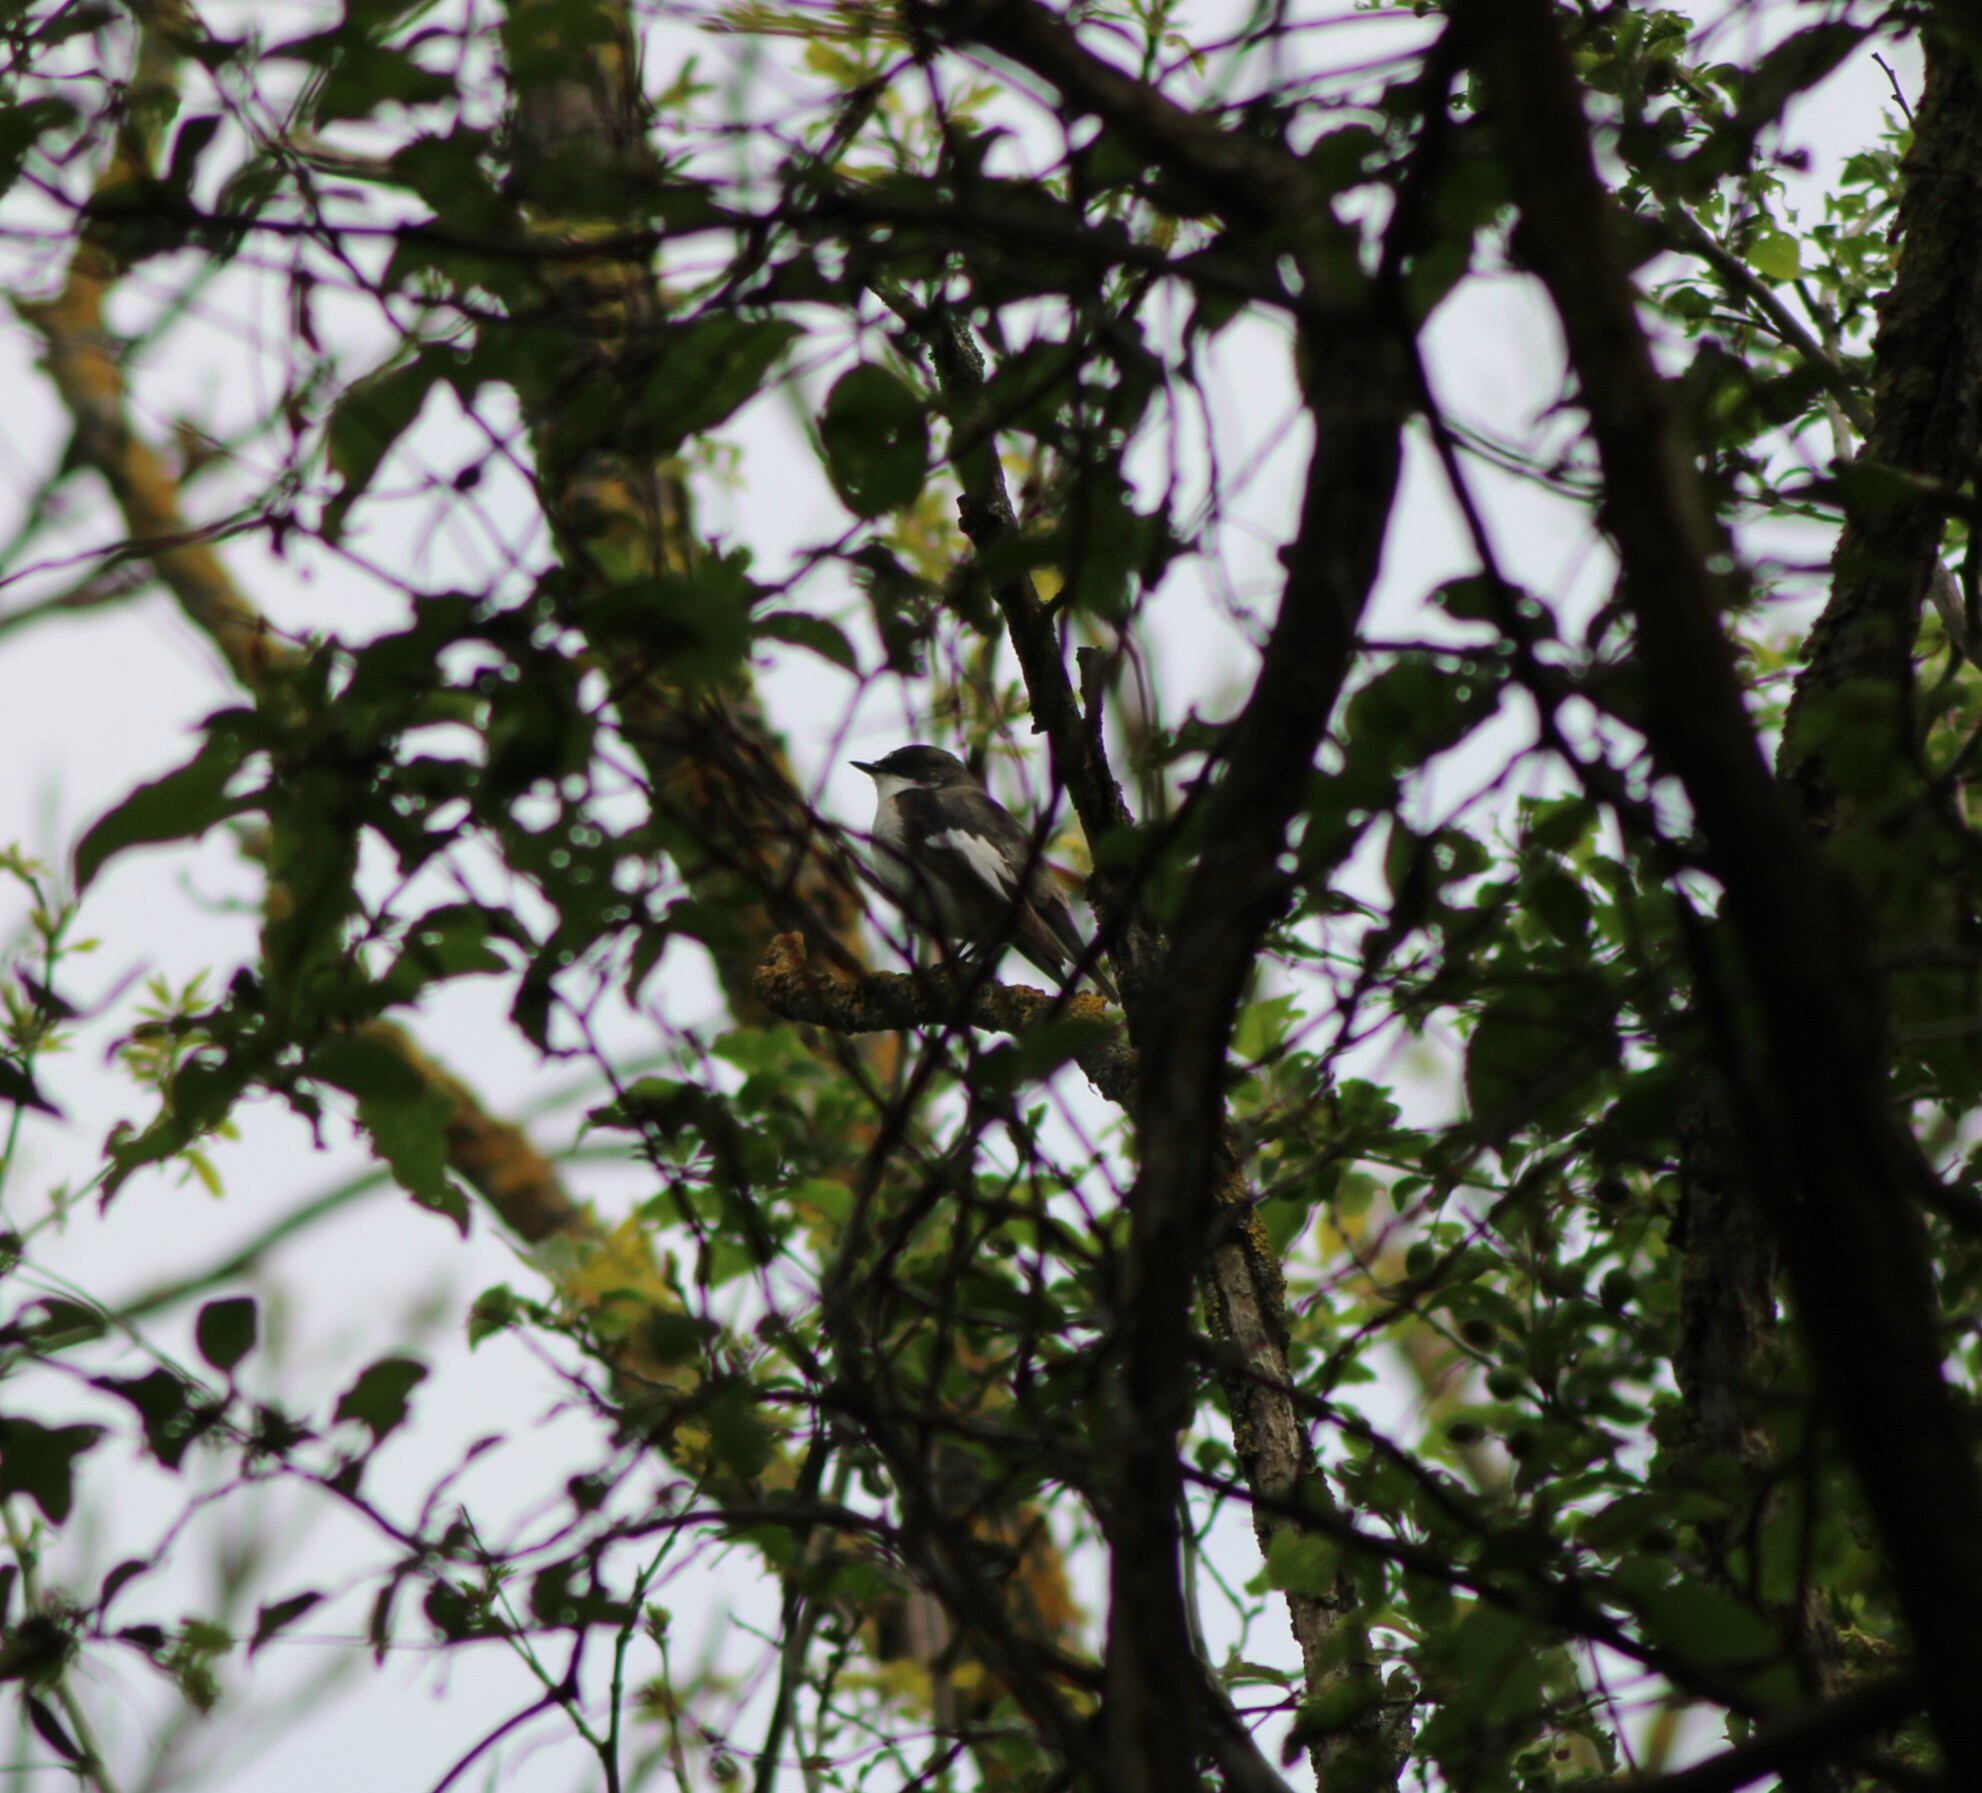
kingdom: Animalia
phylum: Chordata
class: Aves
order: Passeriformes
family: Muscicapidae
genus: Ficedula
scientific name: Ficedula hypoleuca
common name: European pied flycatcher
